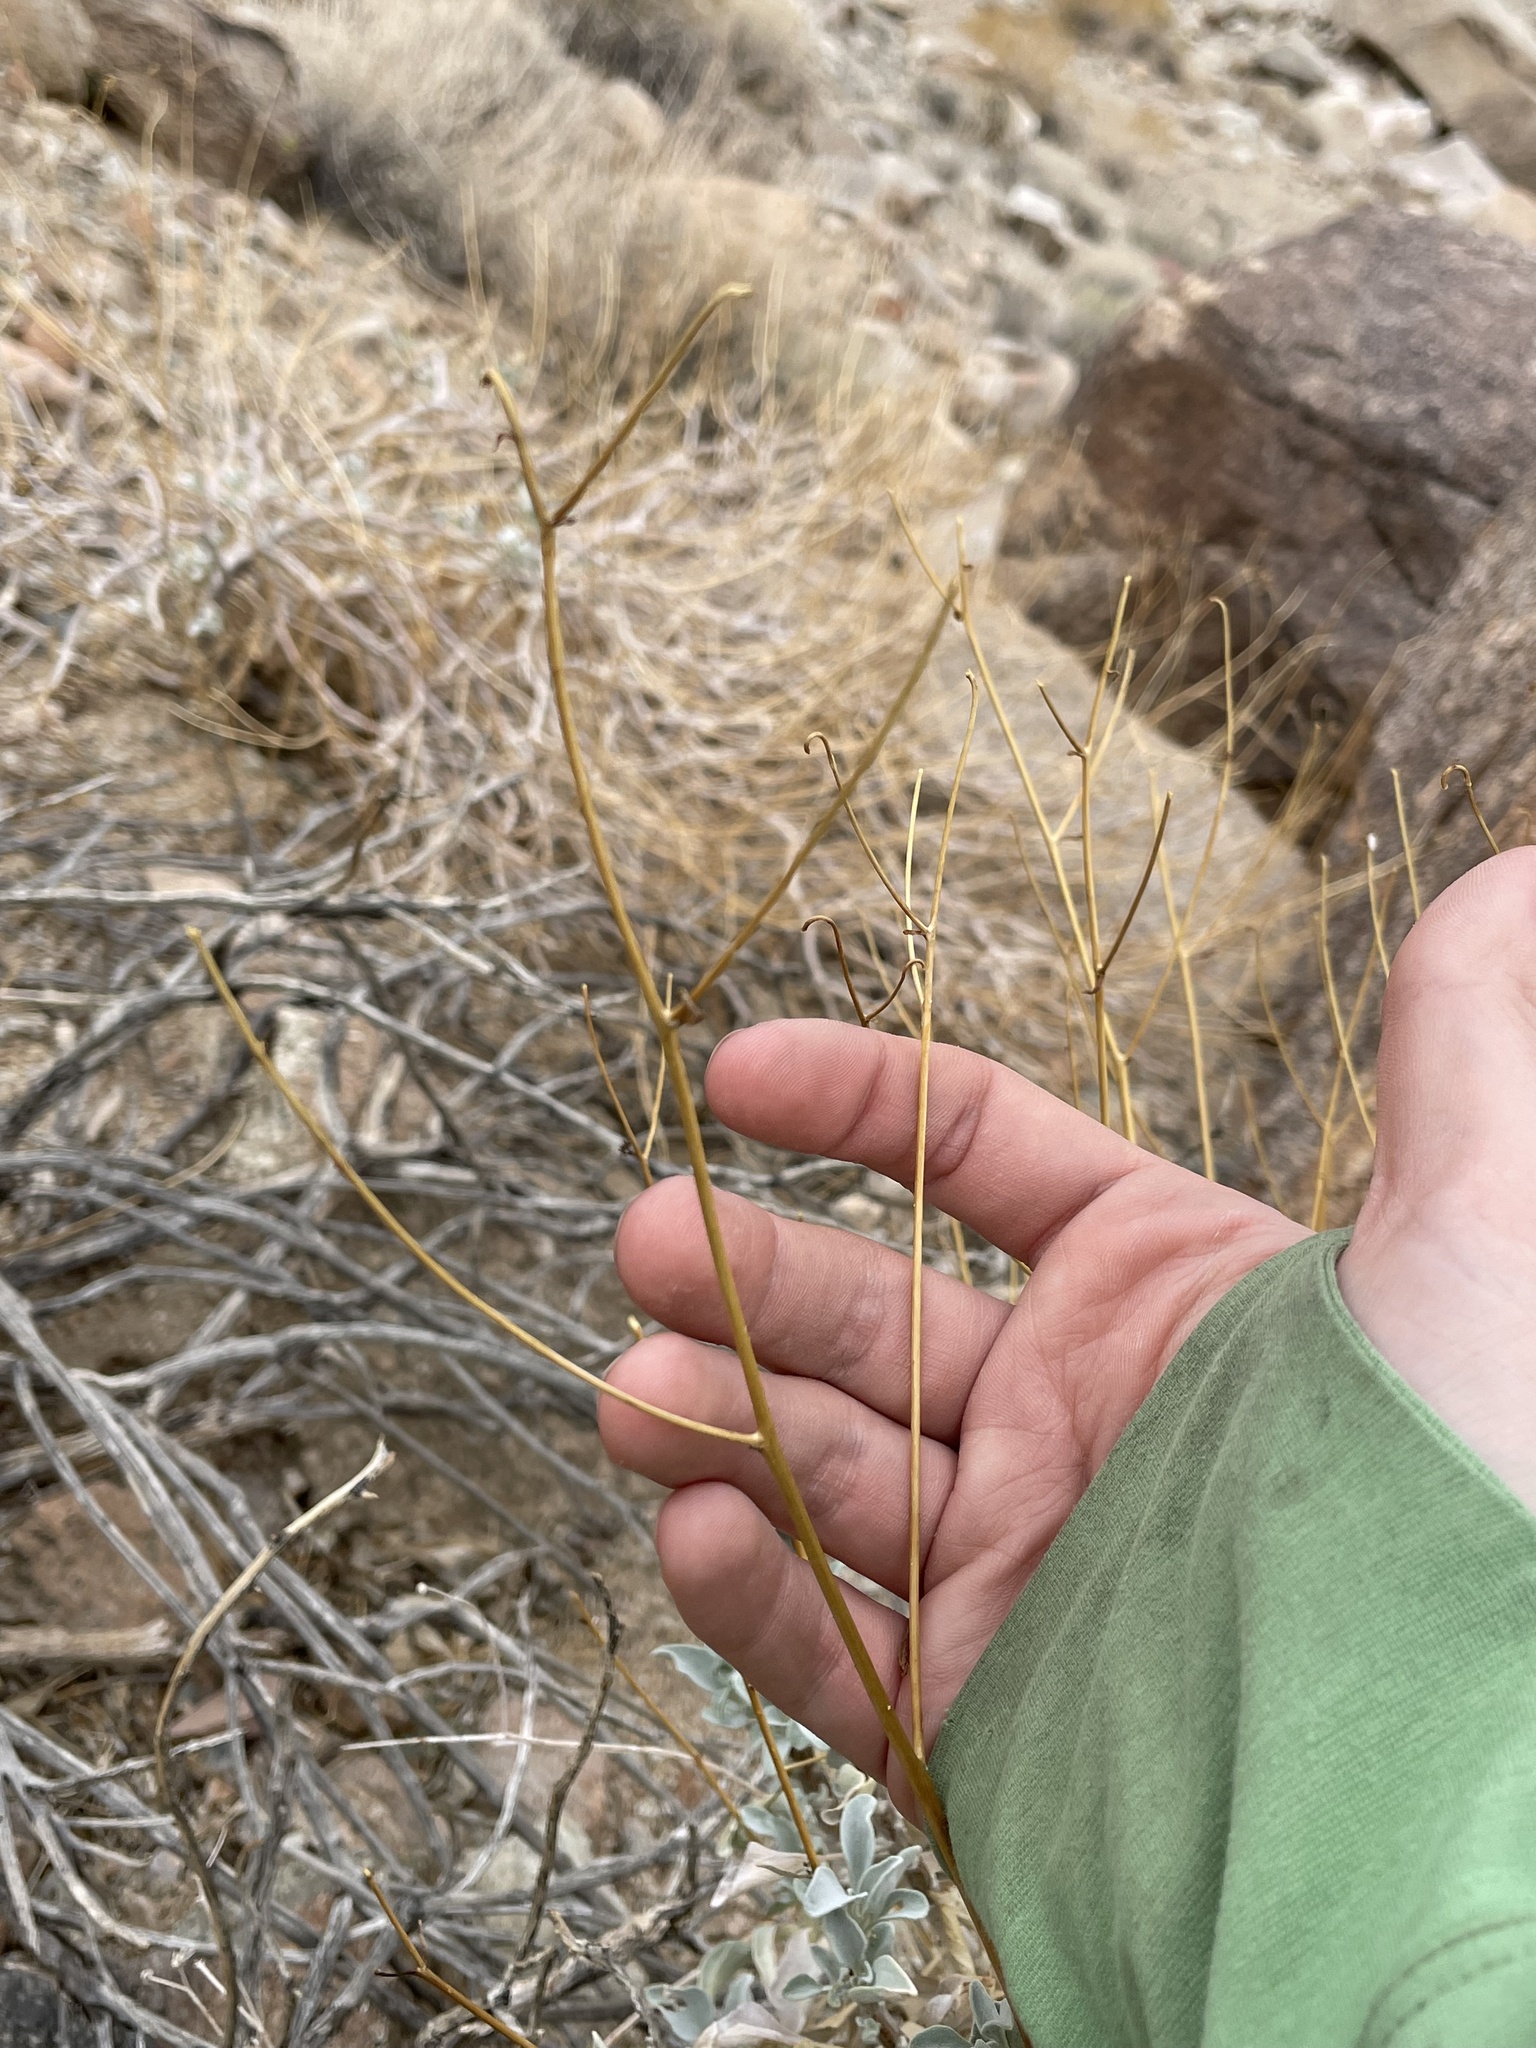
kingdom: Plantae
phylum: Tracheophyta
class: Magnoliopsida
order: Asterales
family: Asteraceae
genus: Encelia
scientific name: Encelia farinosa
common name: Brittlebush
